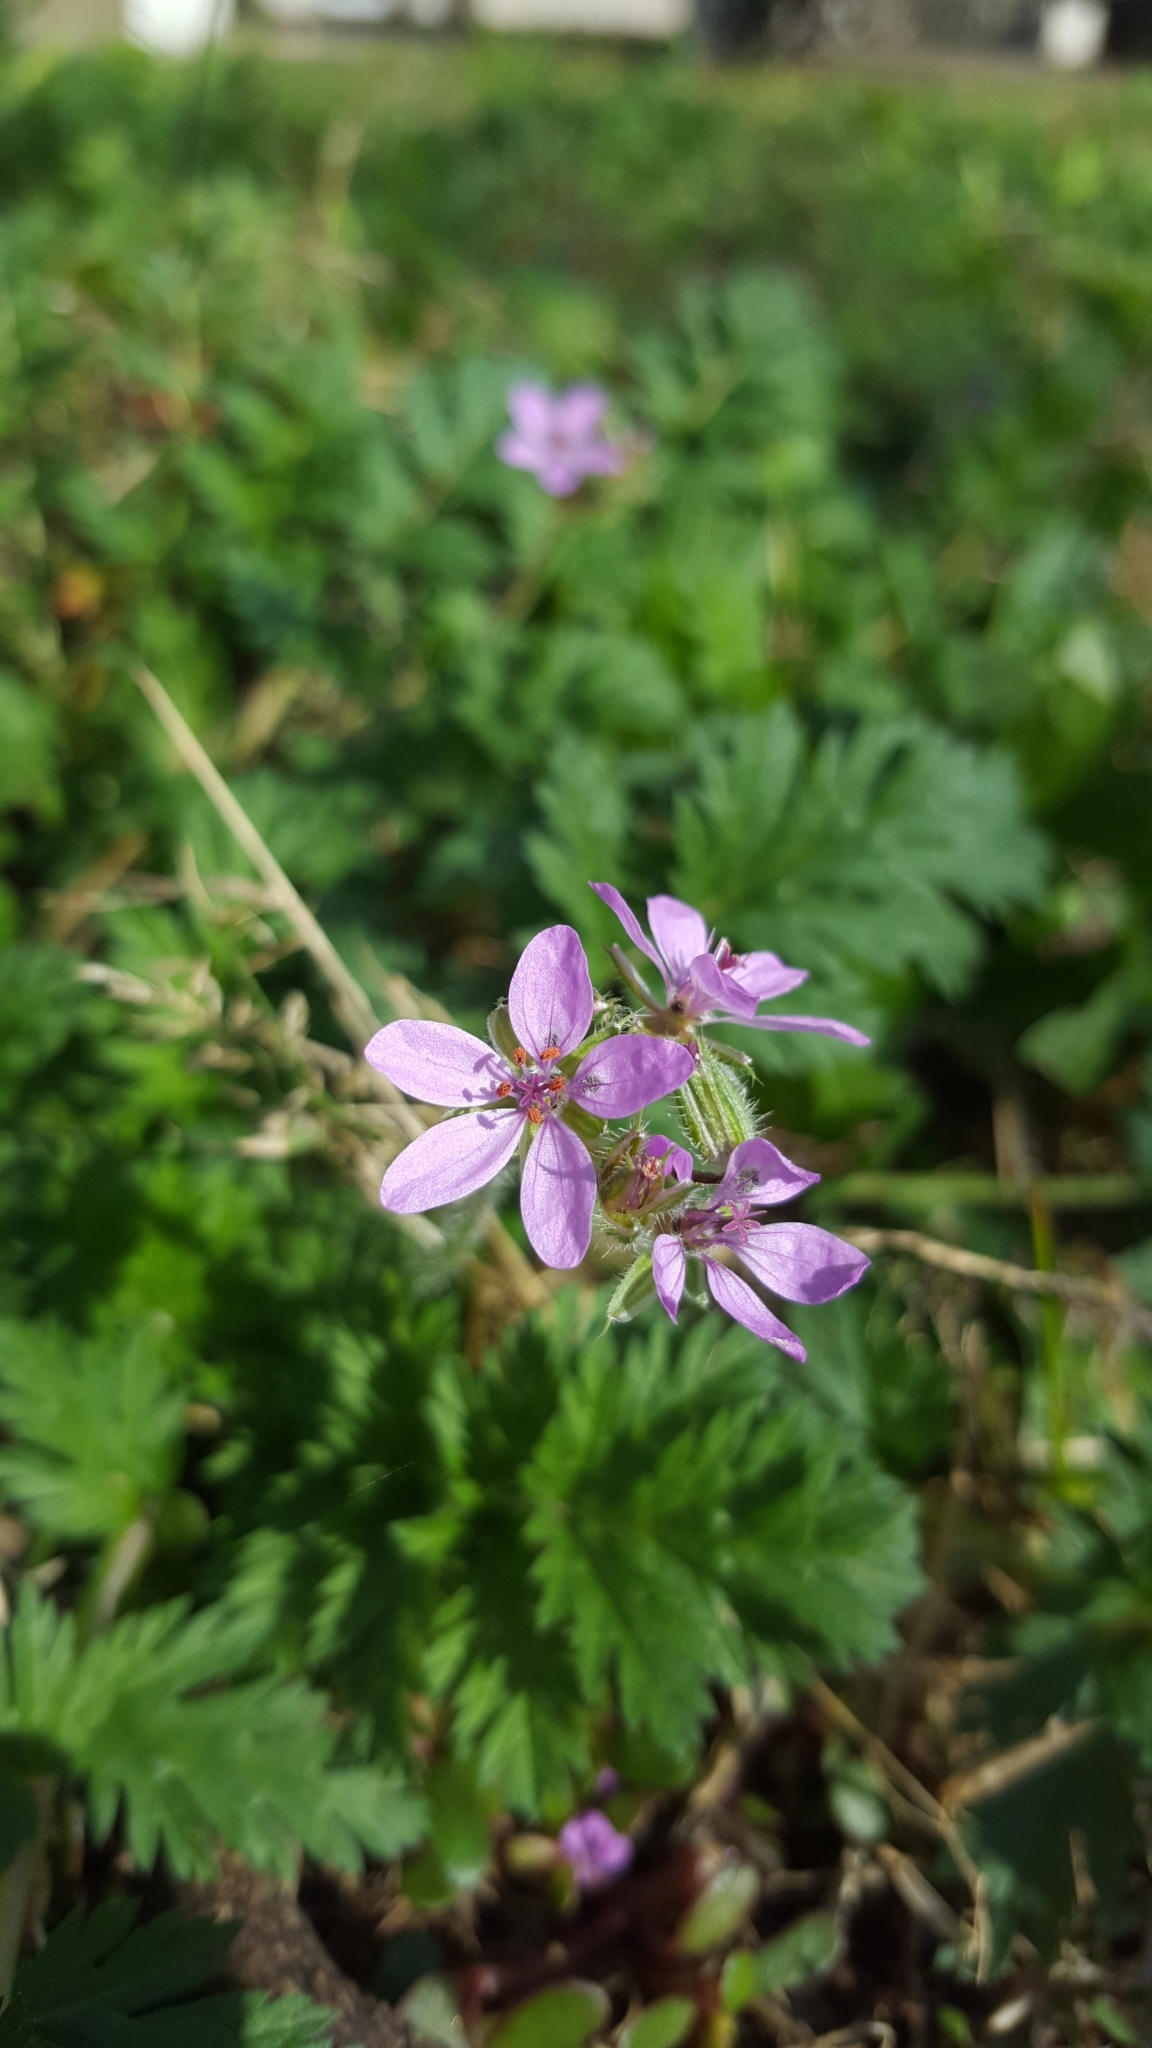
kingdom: Plantae
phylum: Tracheophyta
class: Magnoliopsida
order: Geraniales
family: Geraniaceae
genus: Erodium
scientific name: Erodium cicutarium
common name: Common stork's-bill
